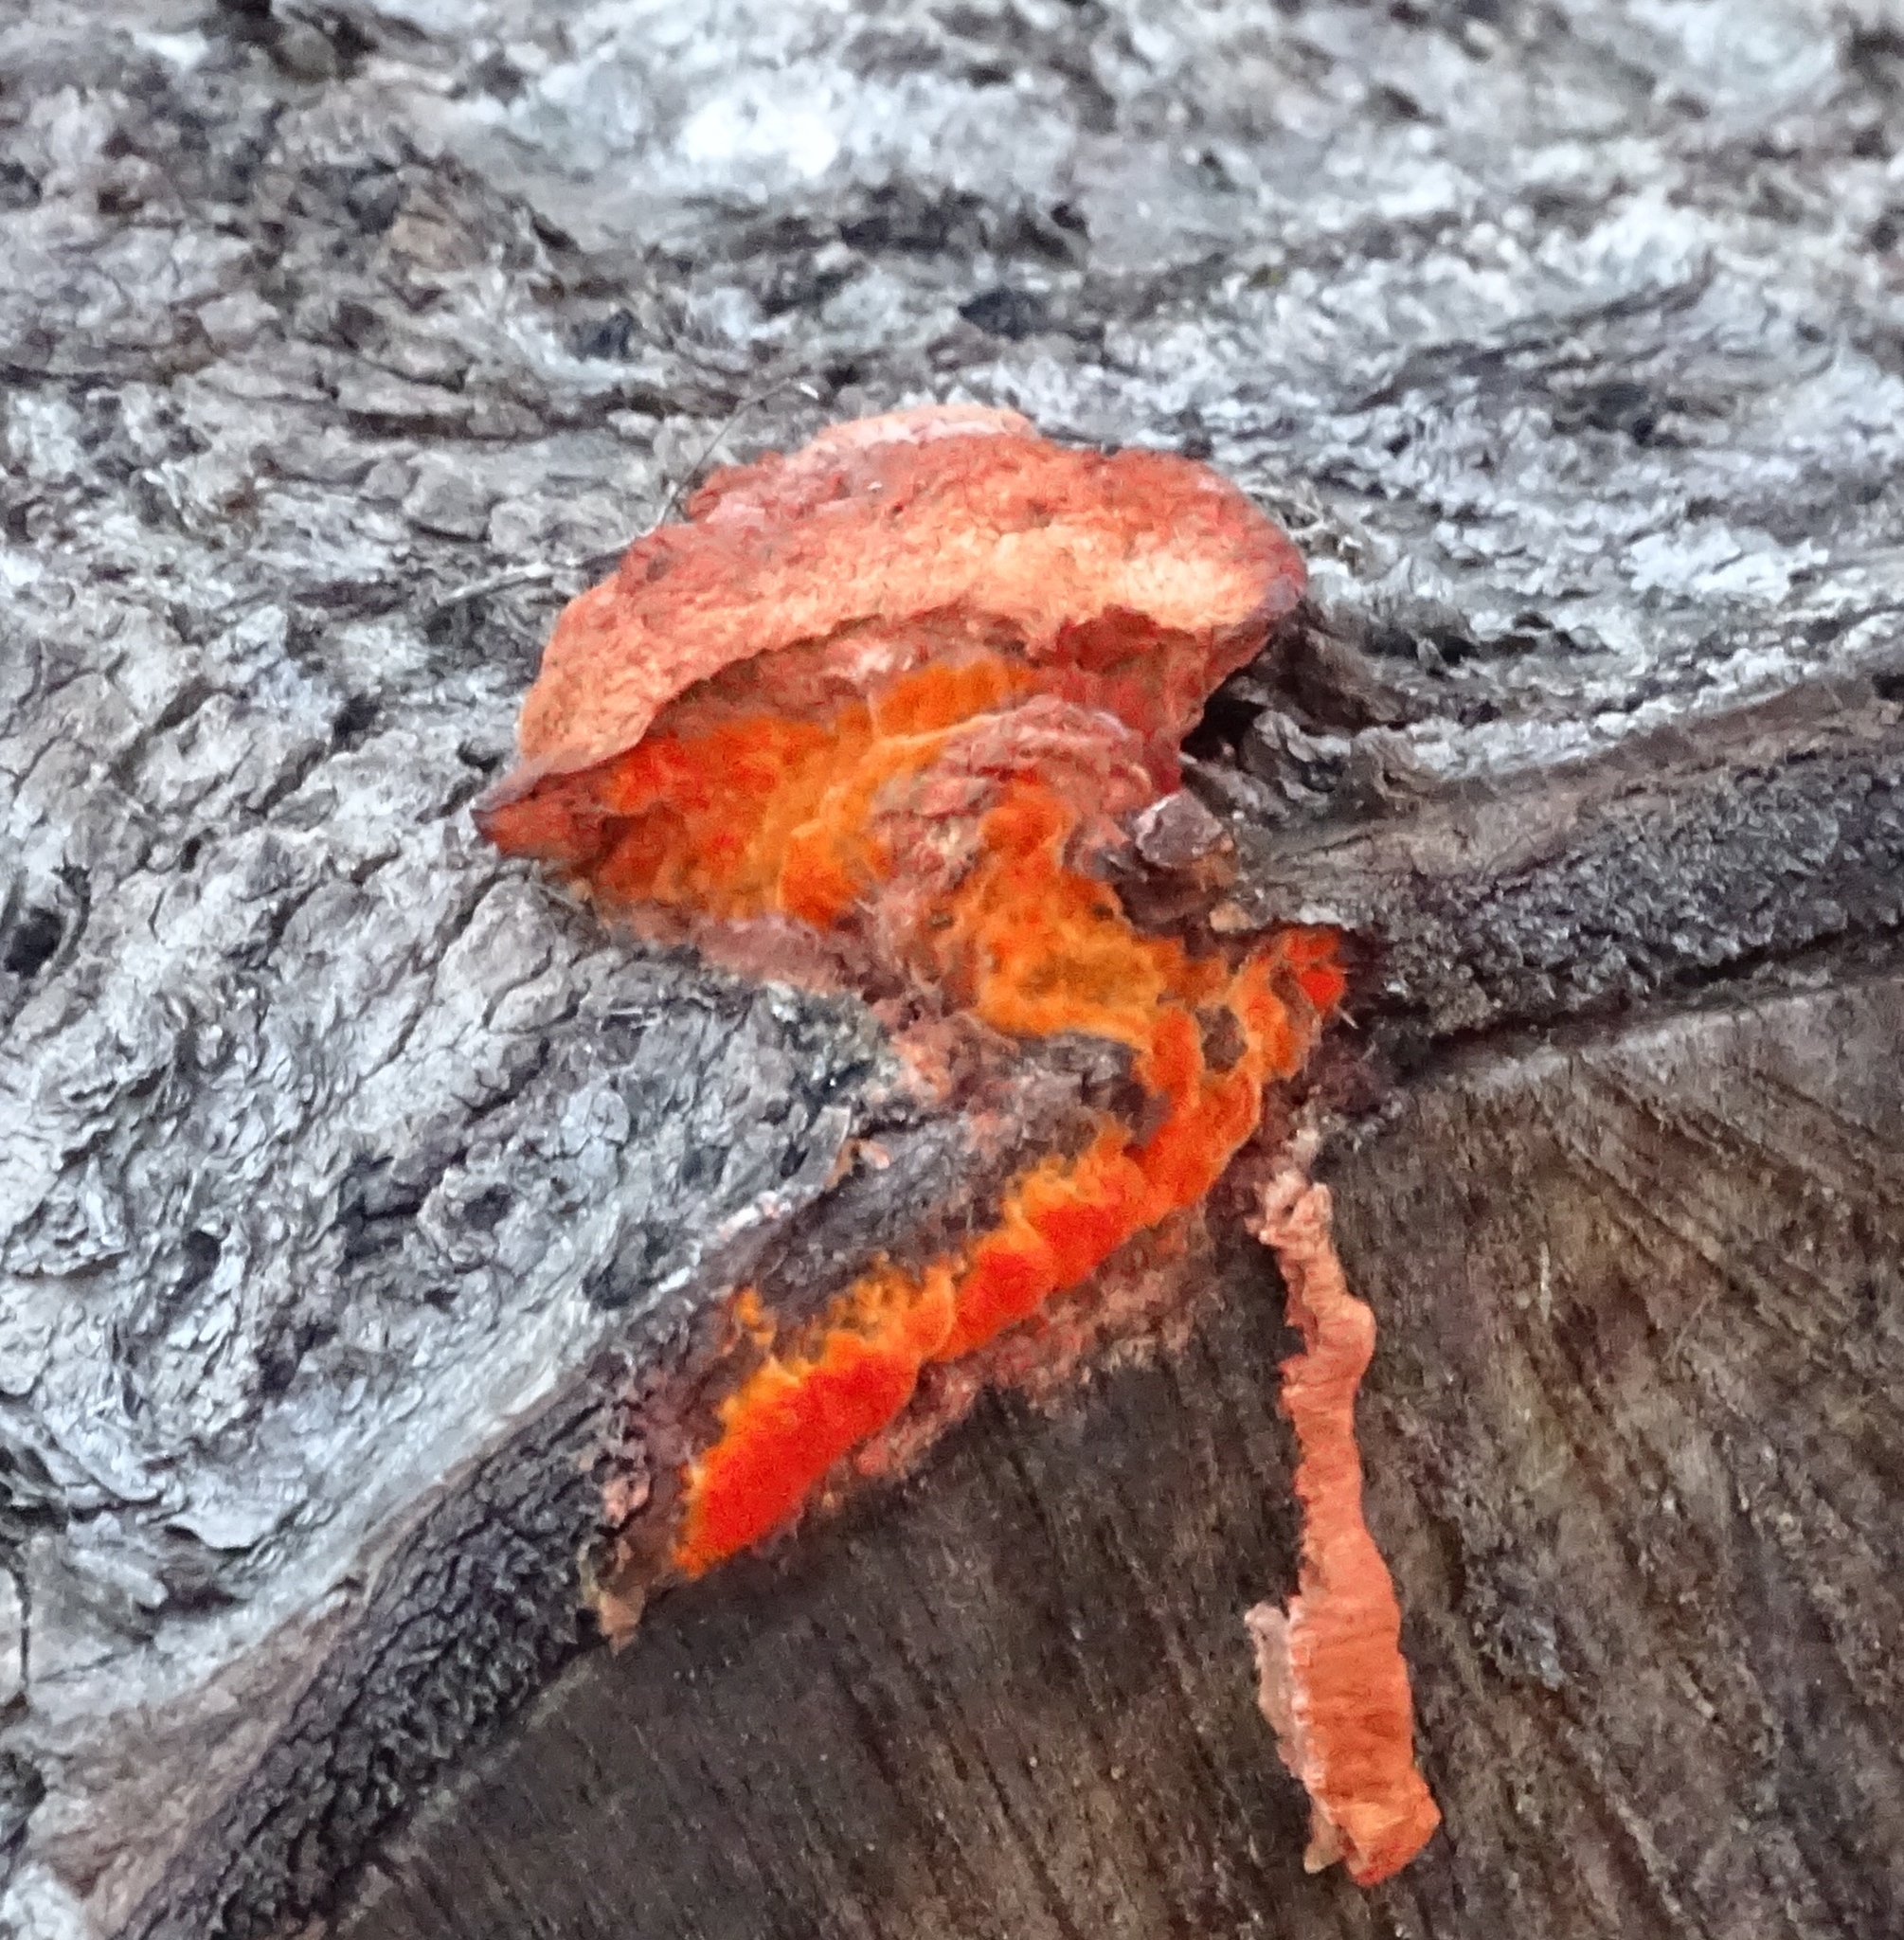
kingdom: Fungi
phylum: Basidiomycota
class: Agaricomycetes
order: Polyporales
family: Polyporaceae
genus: Trametes
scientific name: Trametes cinnabarina
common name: Northern cinnabar polypore
